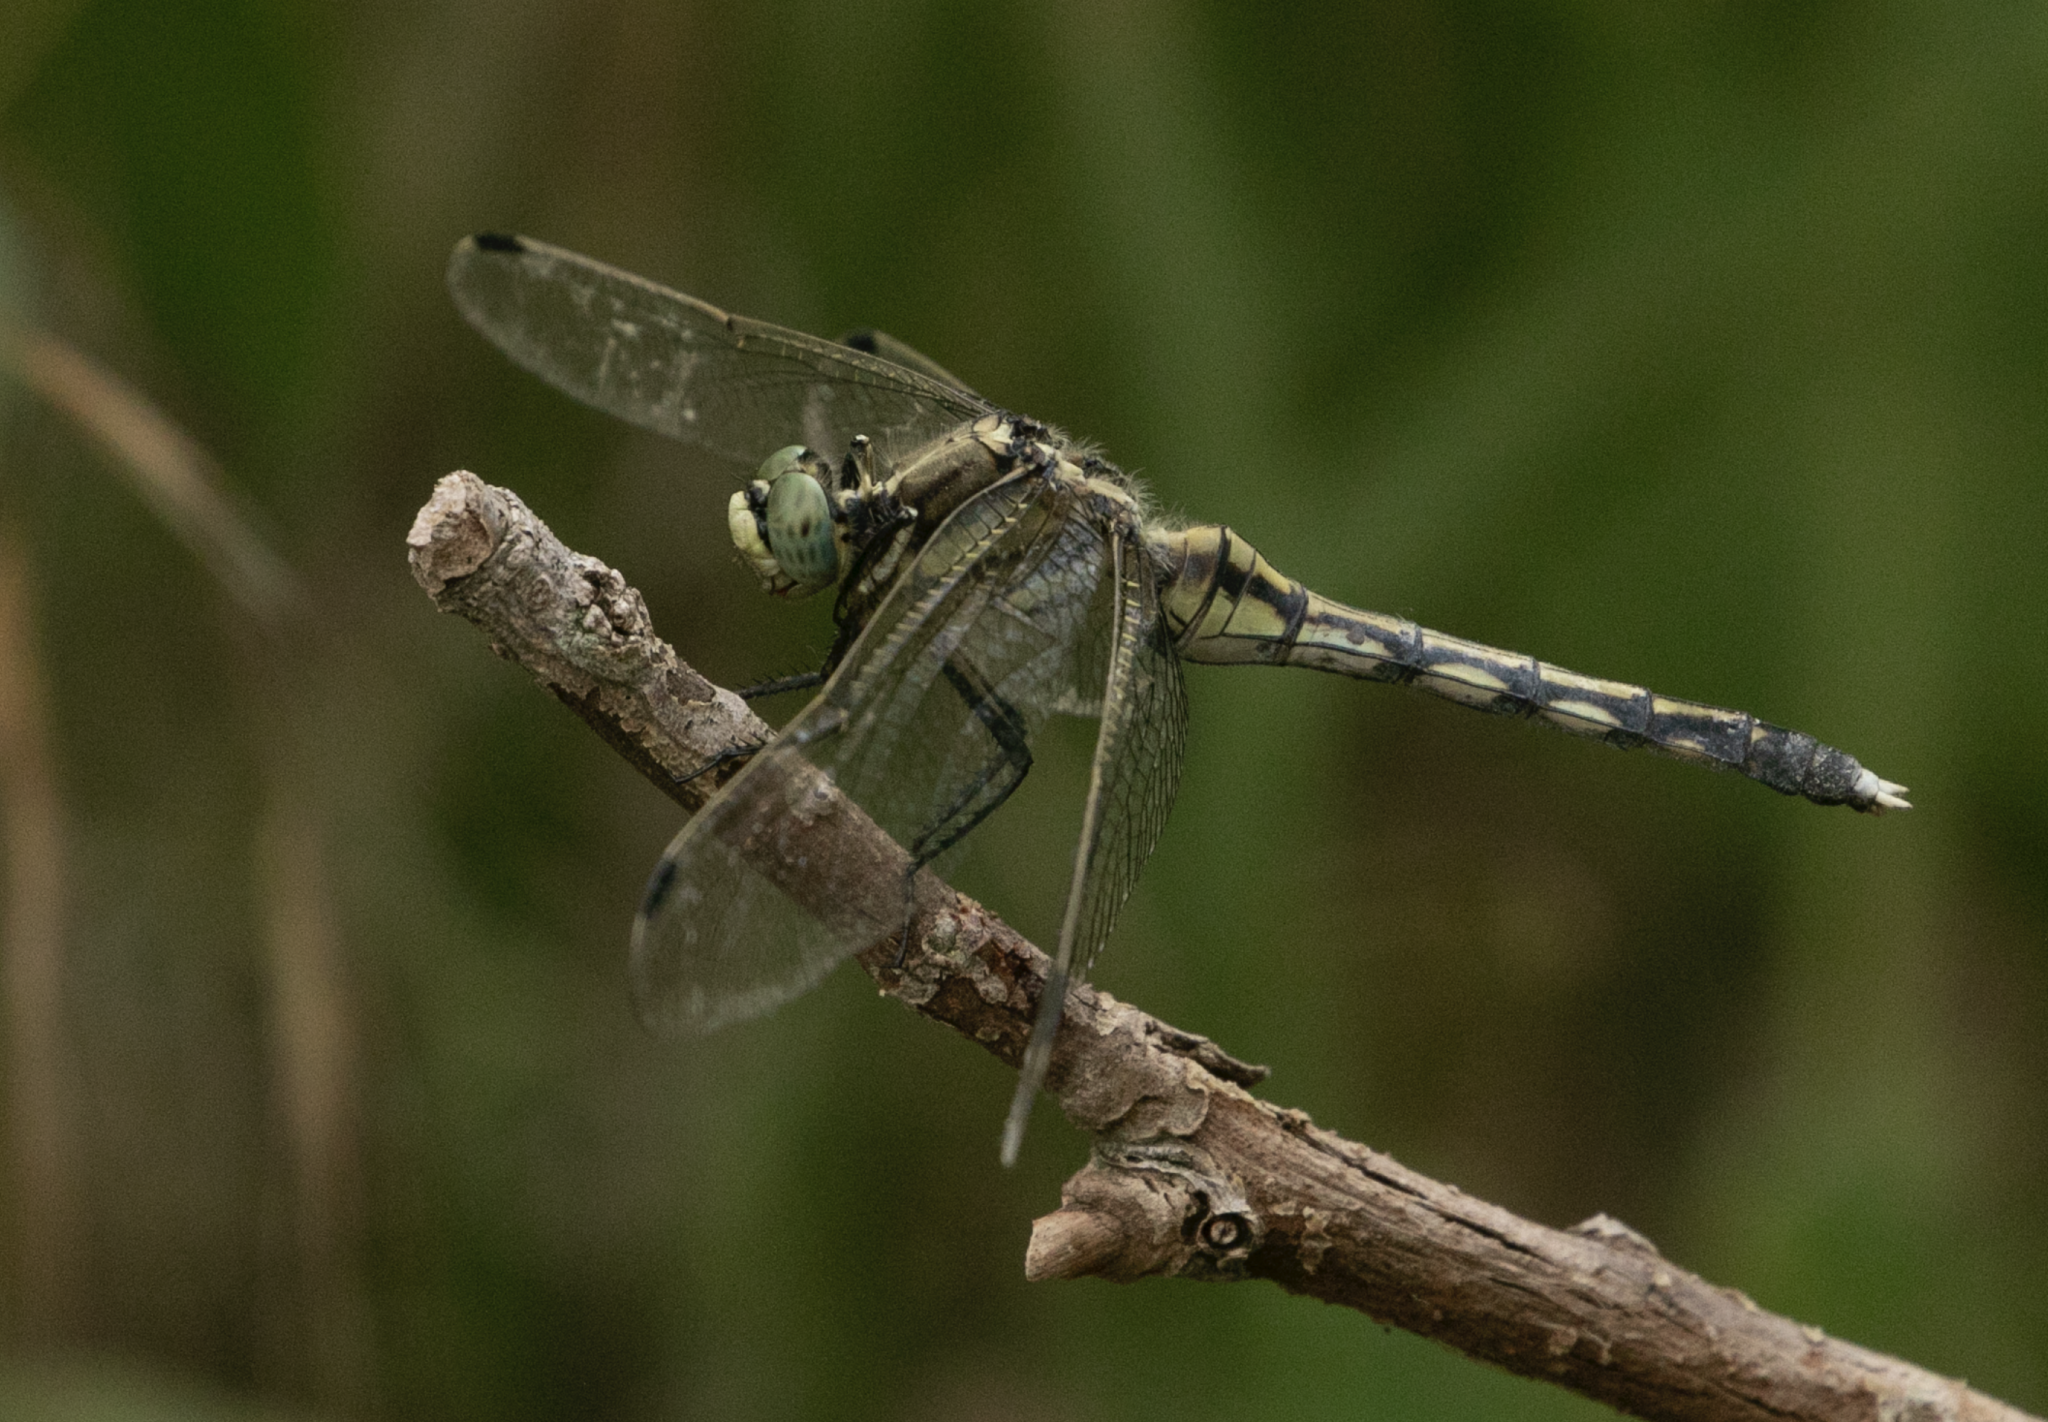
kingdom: Animalia
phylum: Arthropoda
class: Insecta
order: Odonata
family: Libellulidae
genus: Orthetrum
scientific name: Orthetrum albistylum
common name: White-tailed skimmer
